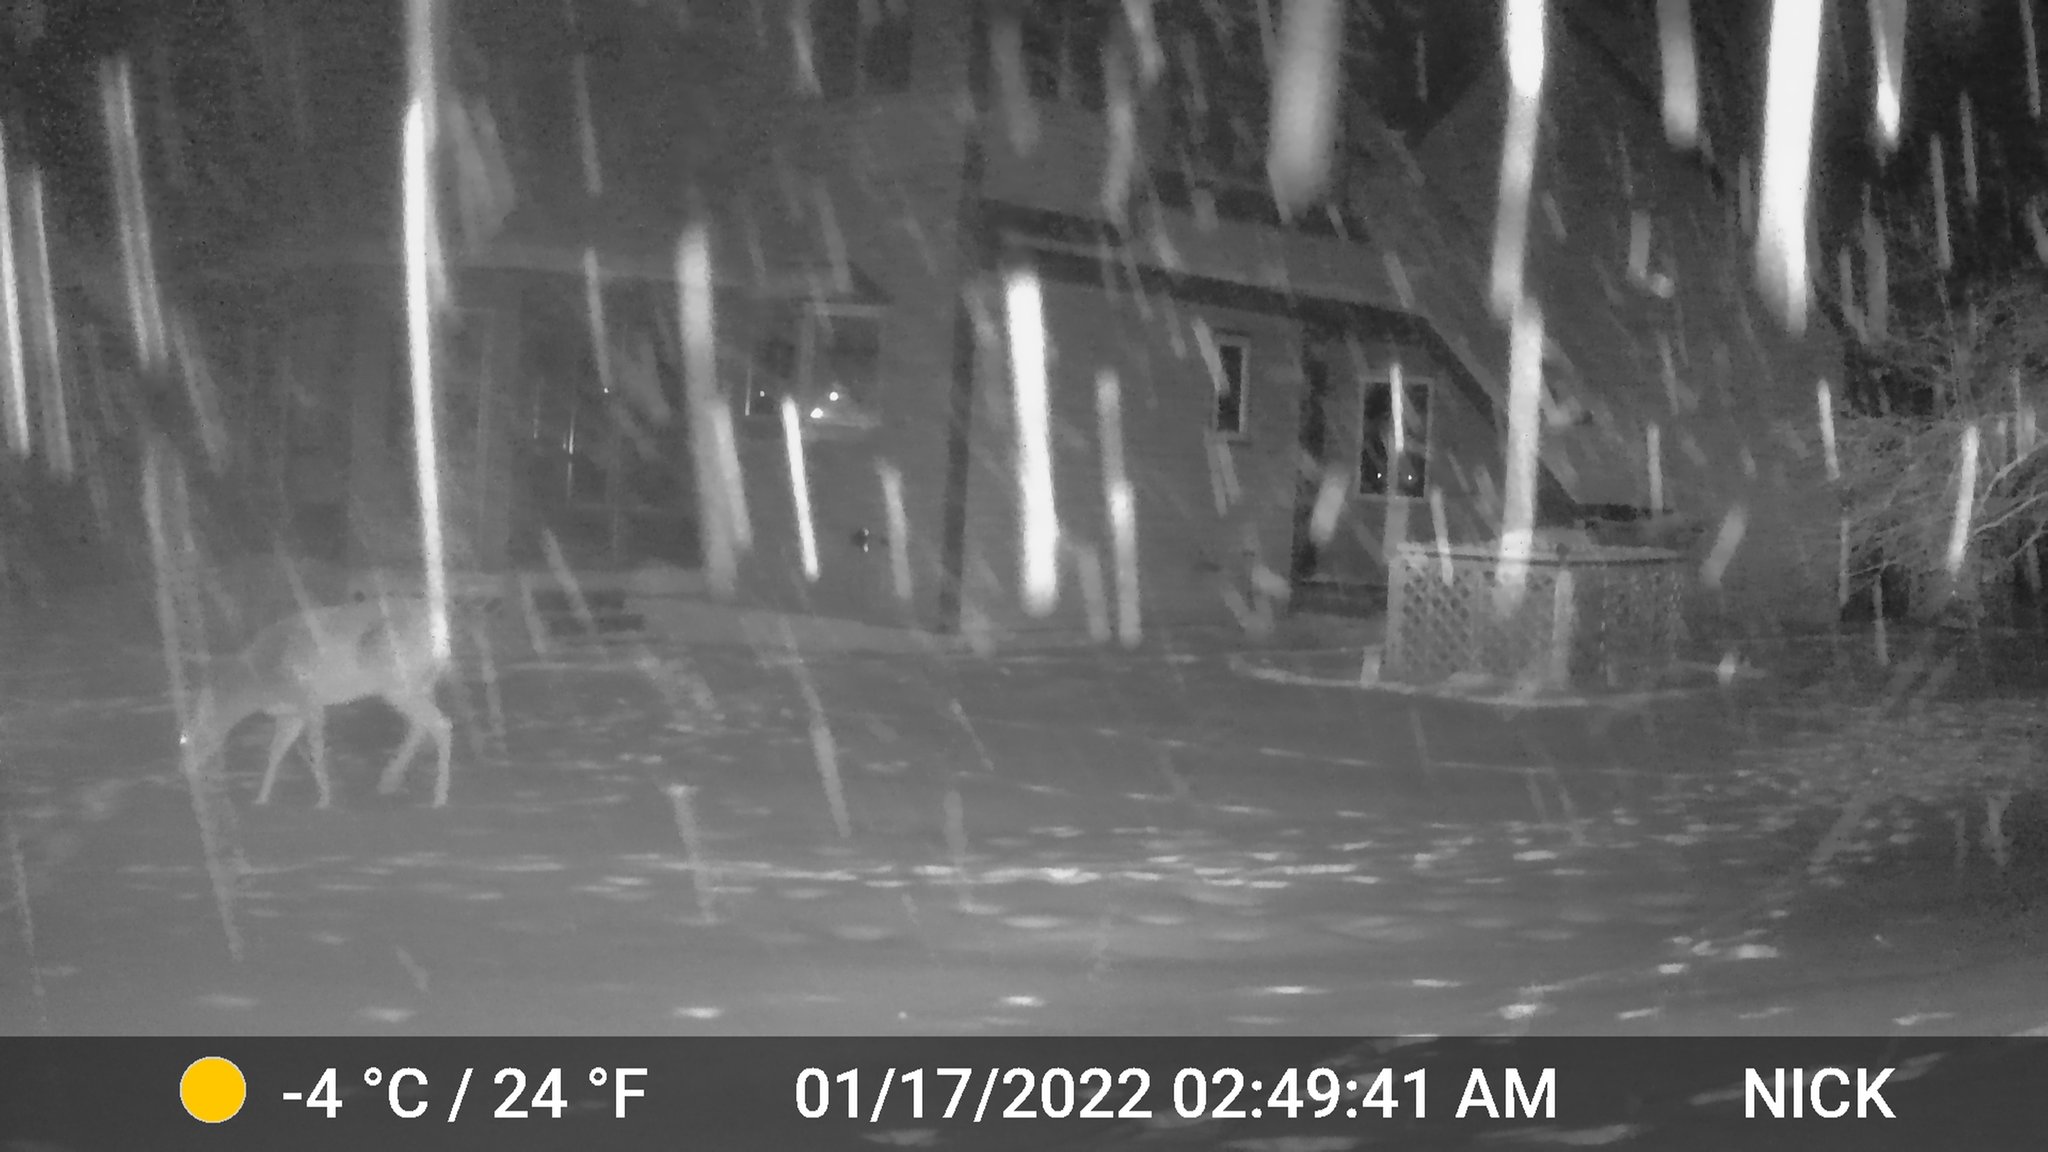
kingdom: Animalia
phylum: Chordata
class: Mammalia
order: Artiodactyla
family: Cervidae
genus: Odocoileus
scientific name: Odocoileus virginianus
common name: White-tailed deer
